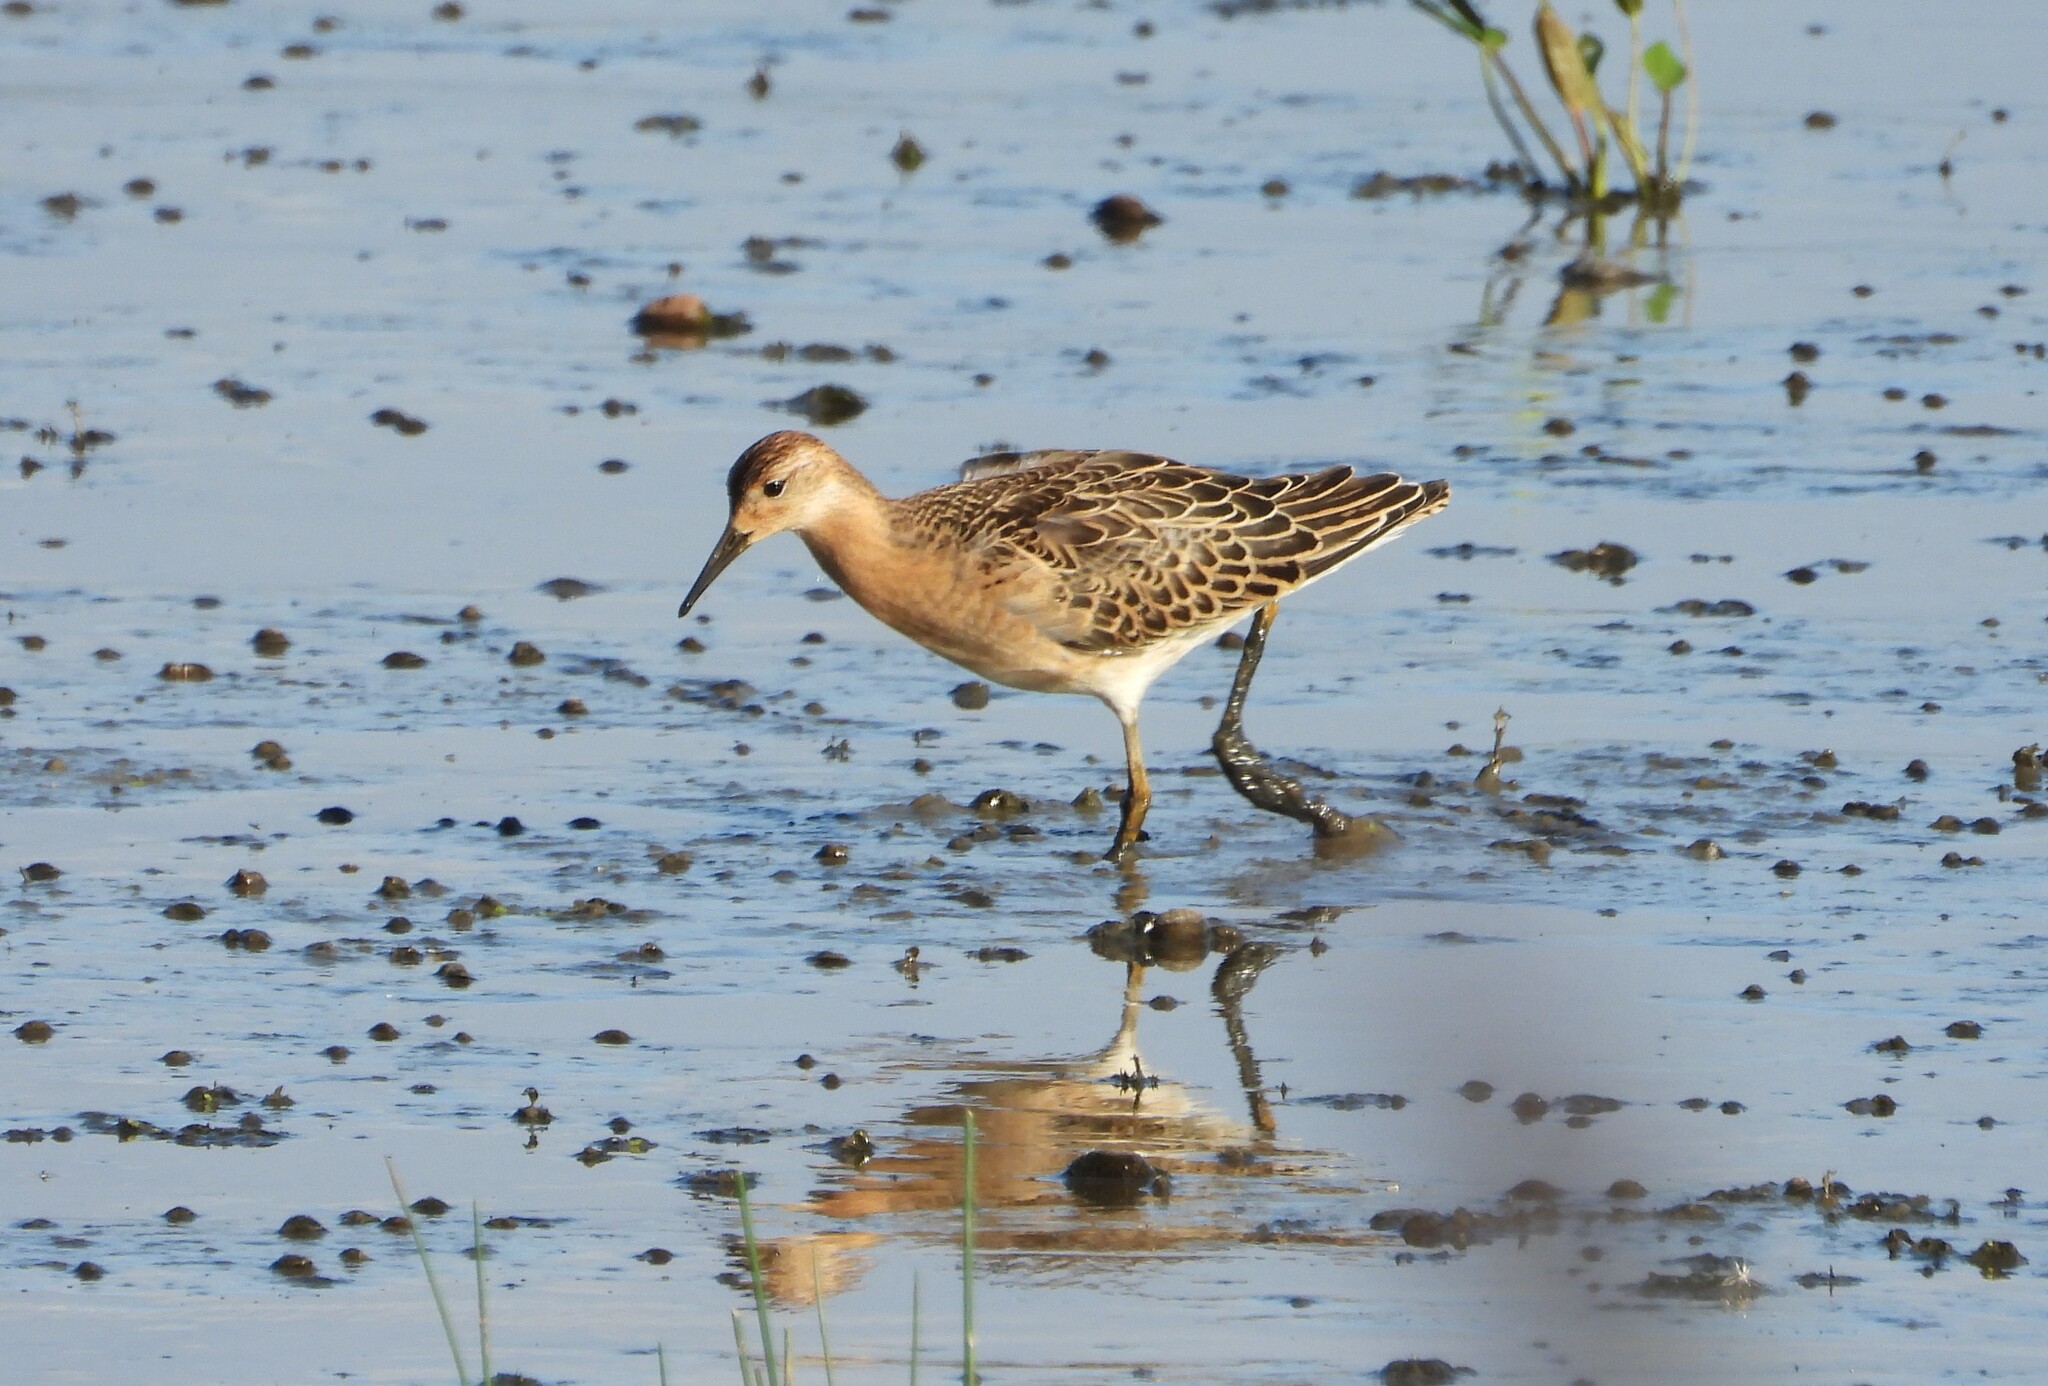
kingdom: Animalia
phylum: Chordata
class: Aves
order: Charadriiformes
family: Scolopacidae
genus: Calidris
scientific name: Calidris pugnax
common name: Ruff
